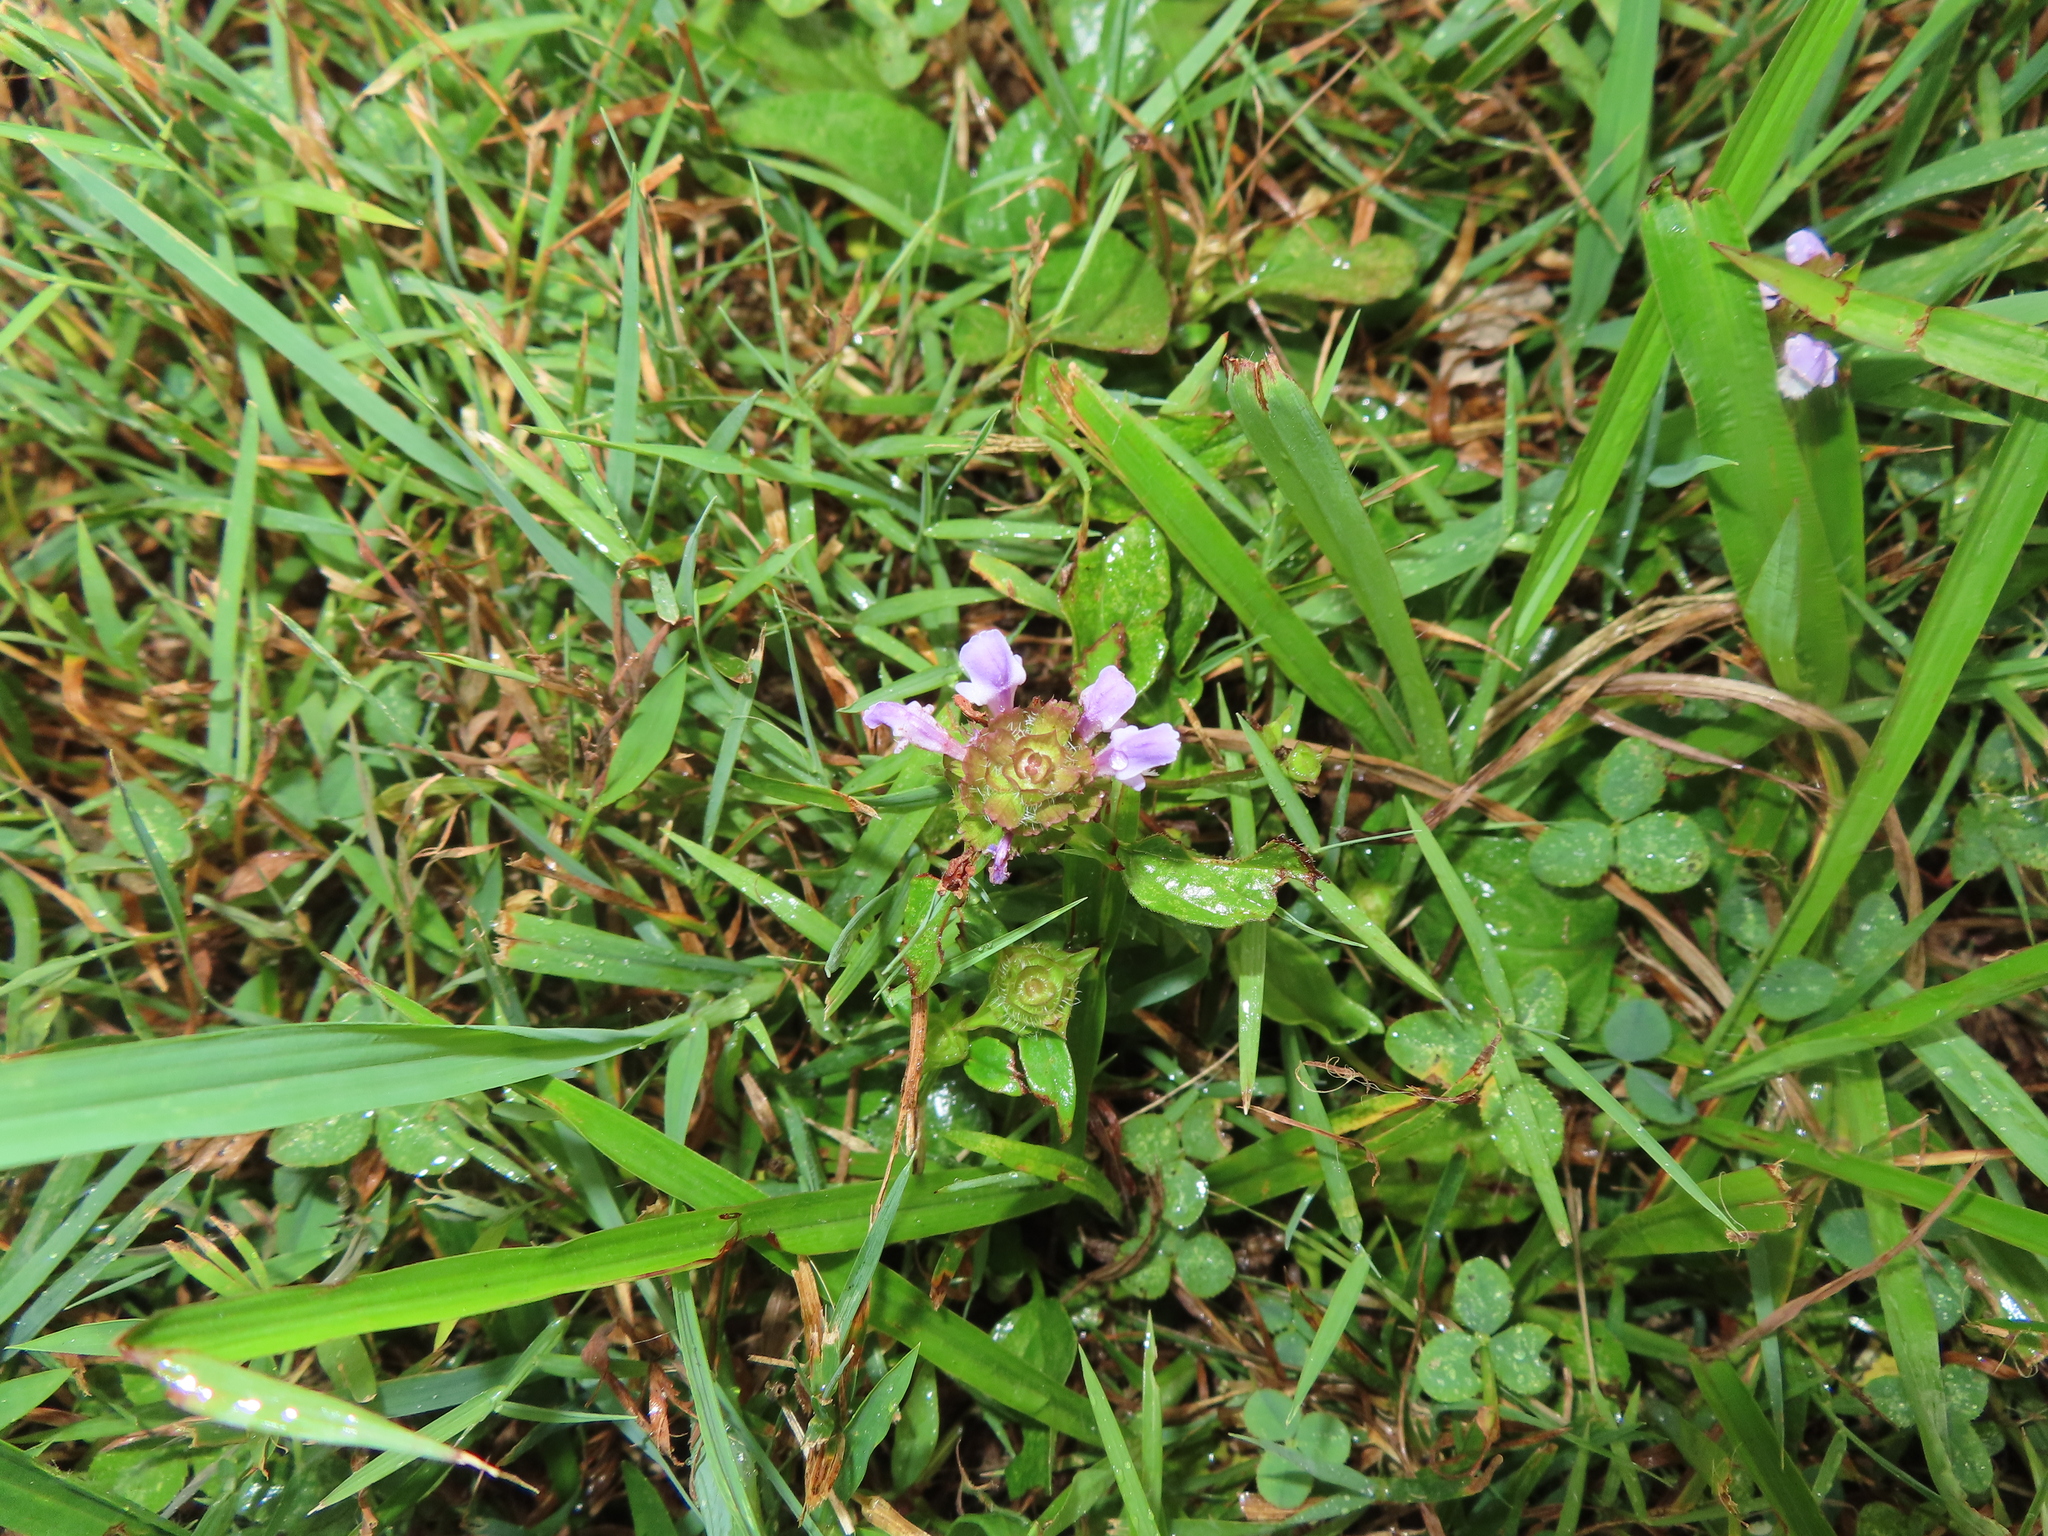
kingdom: Plantae
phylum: Tracheophyta
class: Magnoliopsida
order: Lamiales
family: Lamiaceae
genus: Prunella
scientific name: Prunella vulgaris
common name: Heal-all
